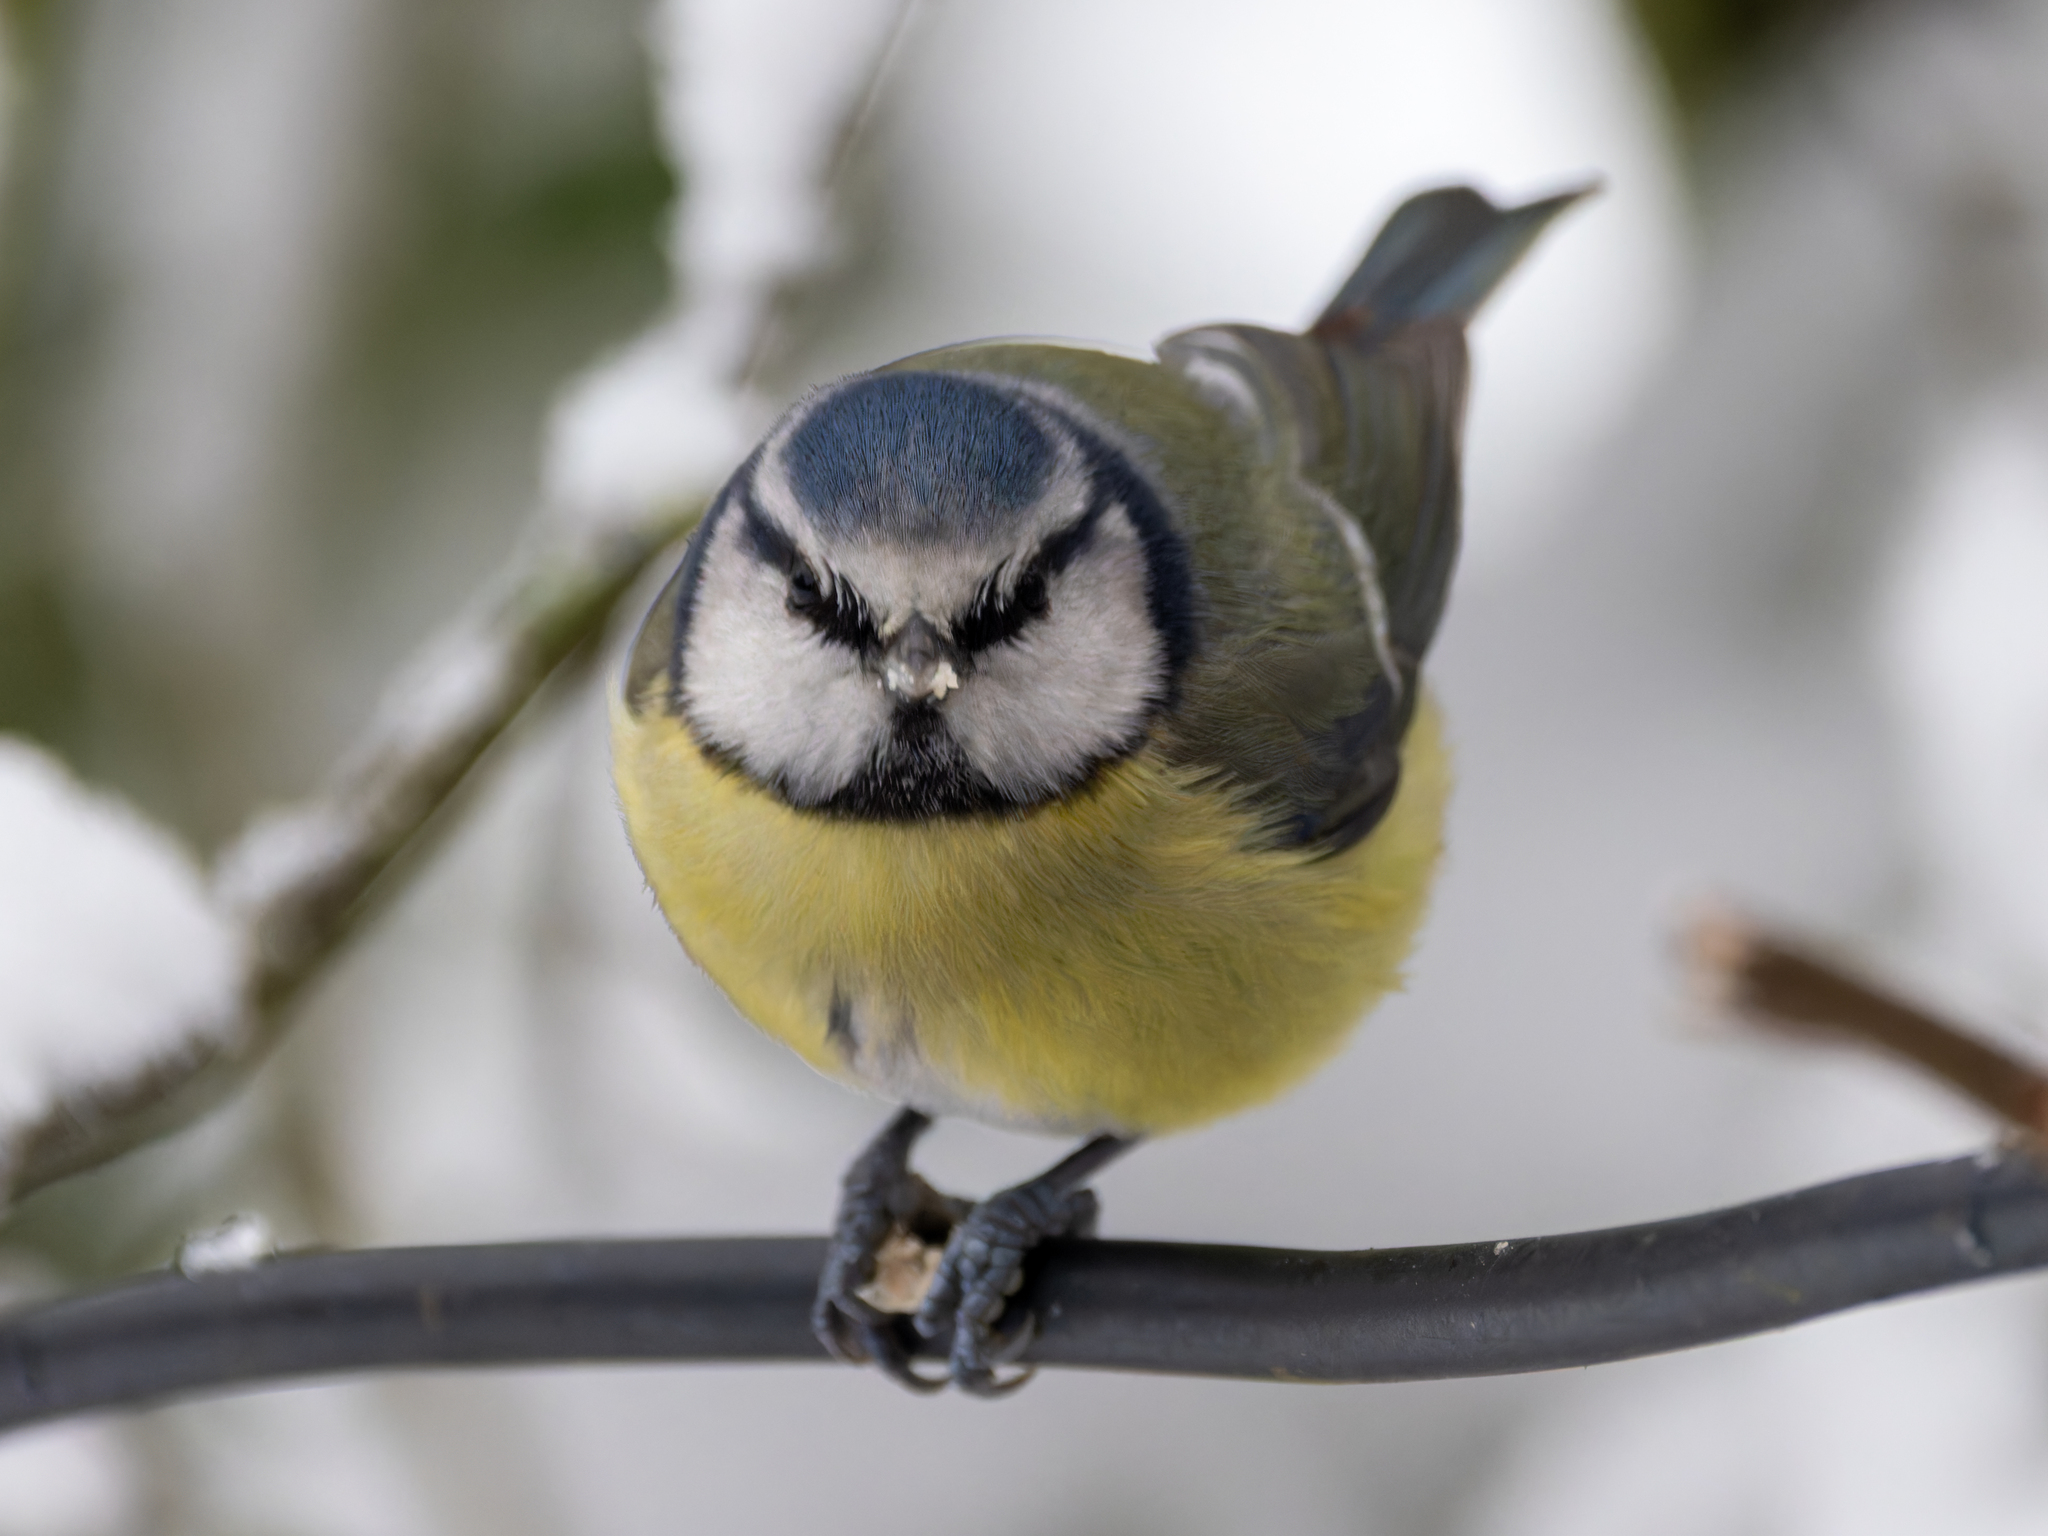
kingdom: Animalia
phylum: Chordata
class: Aves
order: Passeriformes
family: Paridae
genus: Cyanistes
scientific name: Cyanistes caeruleus
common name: Eurasian blue tit
